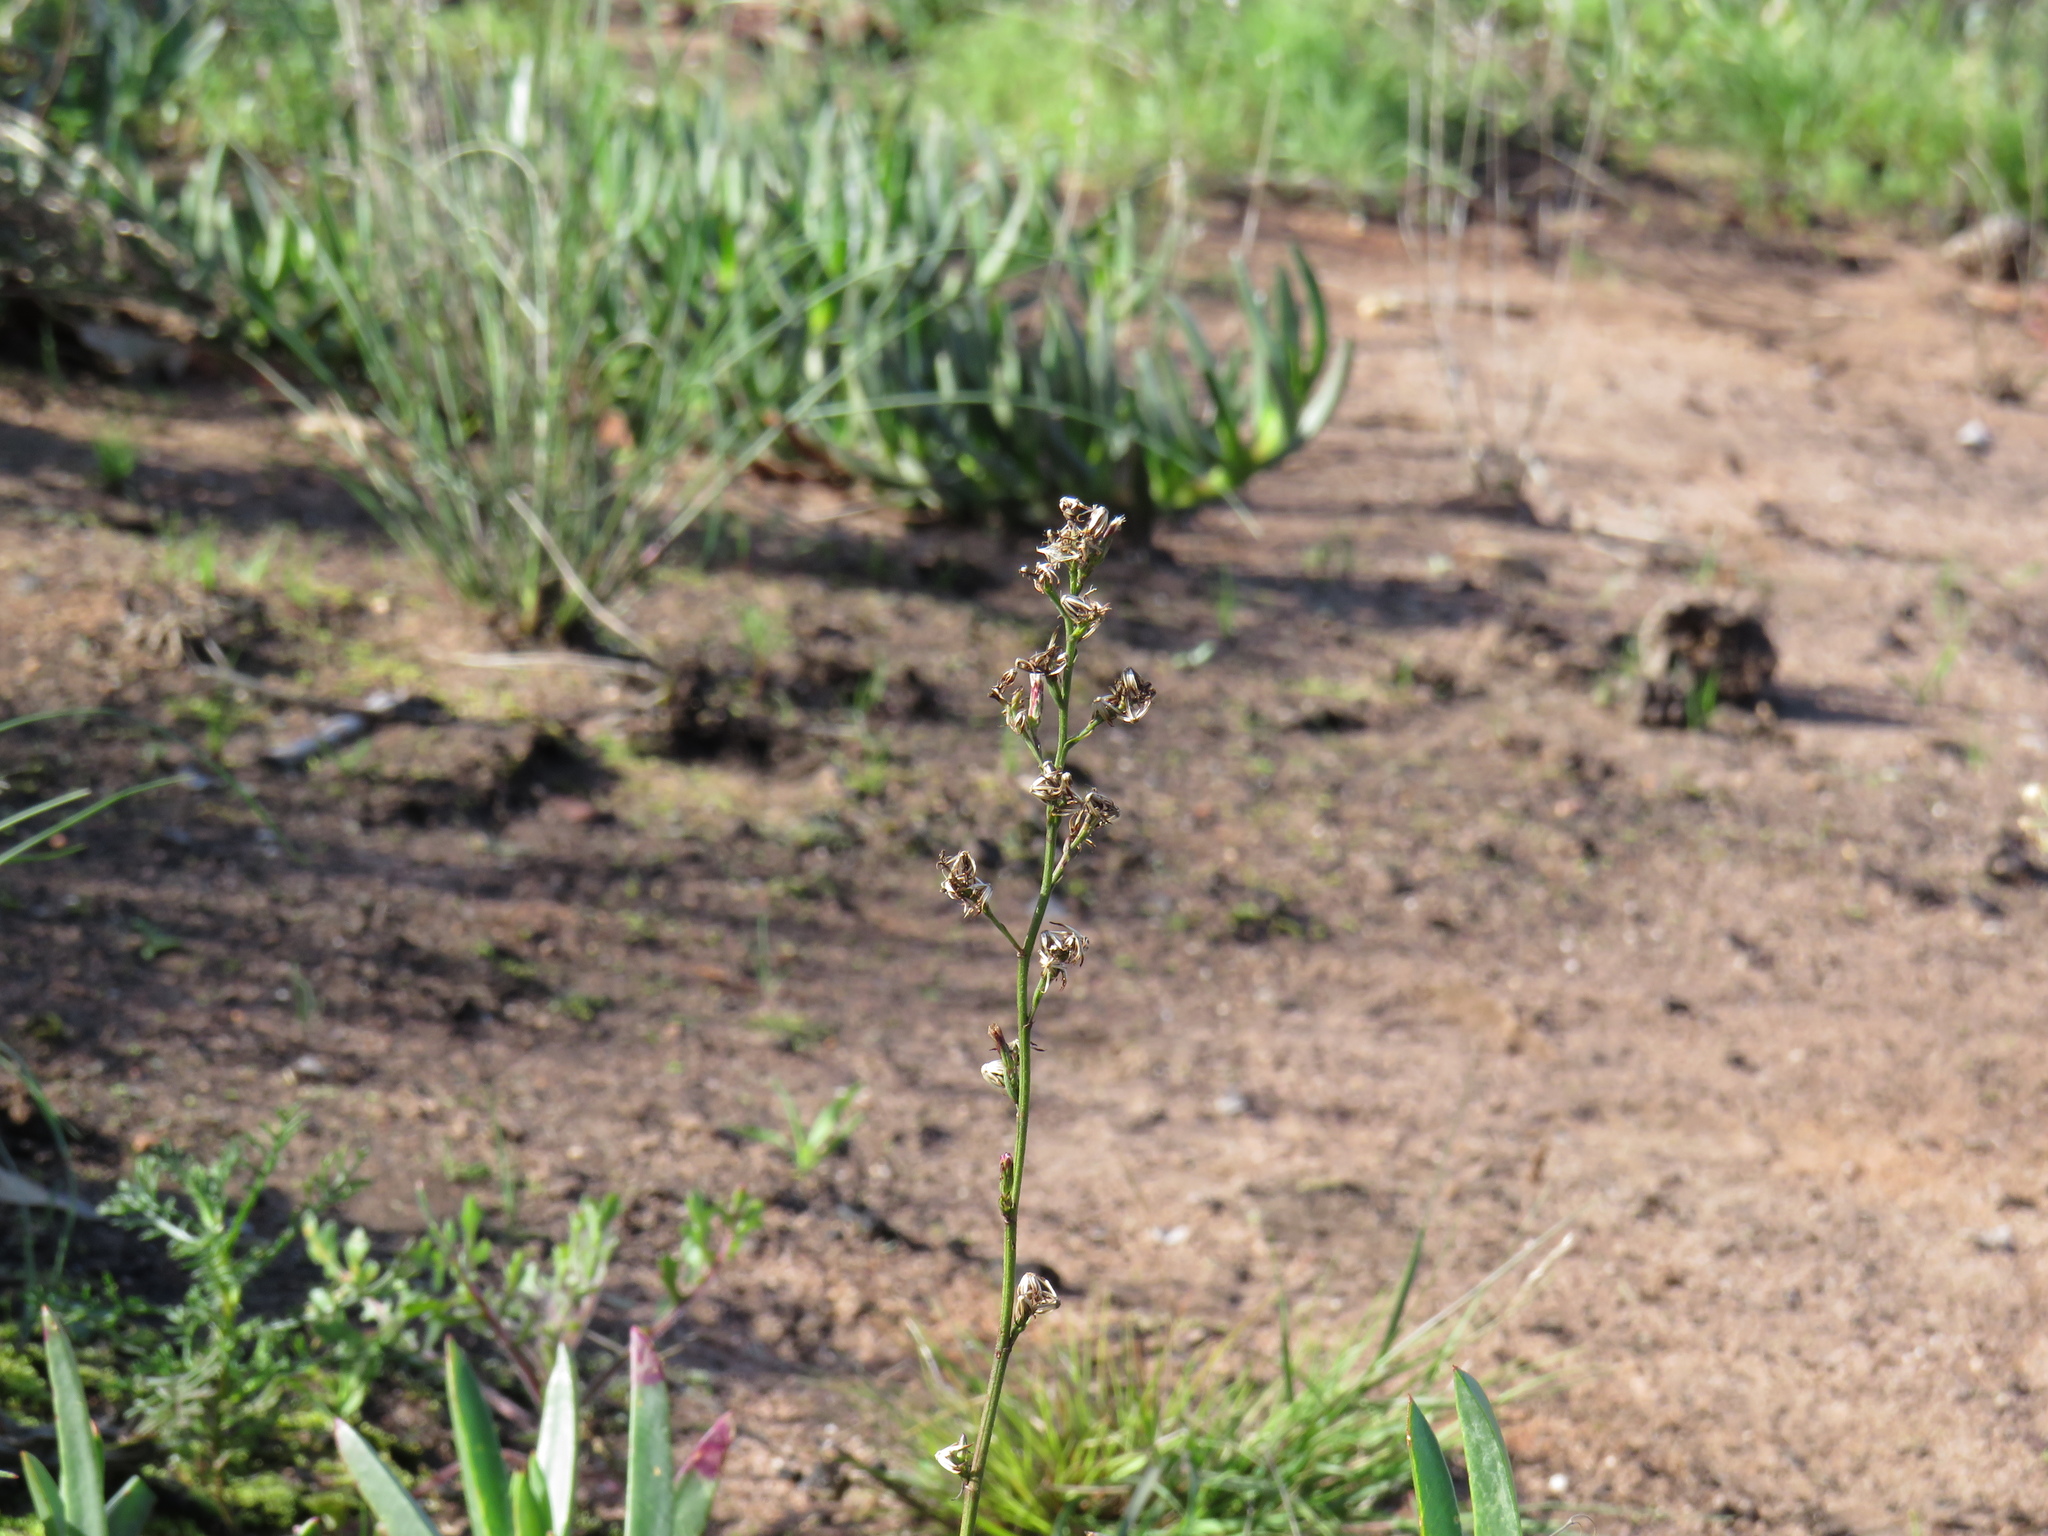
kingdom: Plantae
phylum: Tracheophyta
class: Magnoliopsida
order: Asterales
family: Asteraceae
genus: Symphyotrichum
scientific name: Symphyotrichum squamatum
